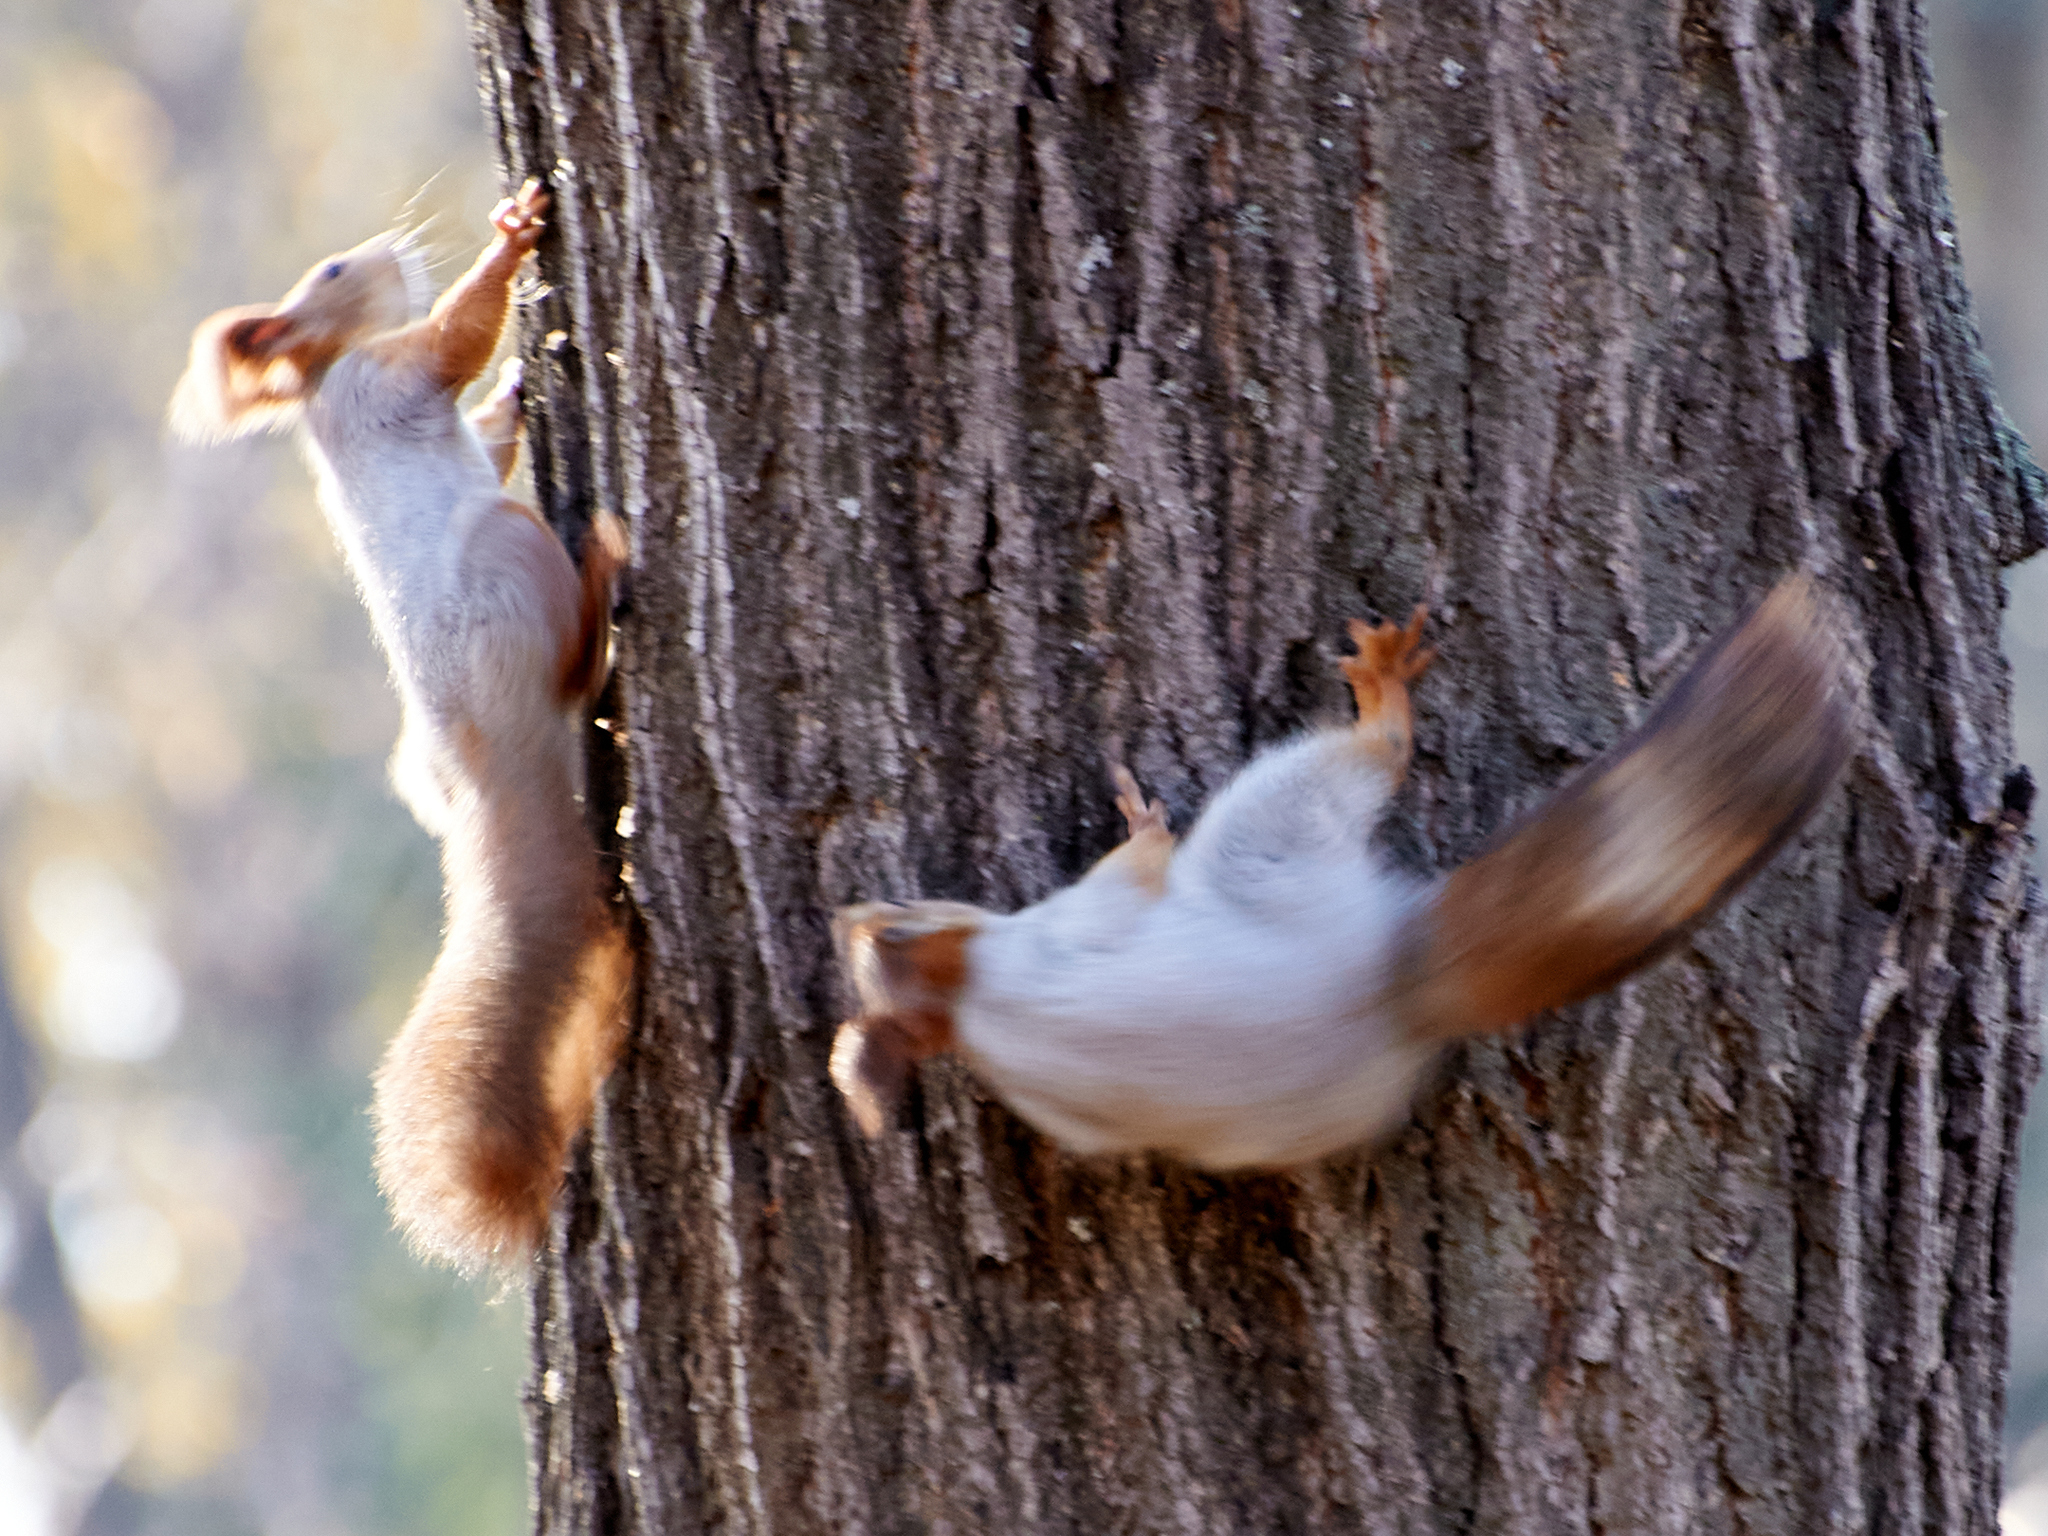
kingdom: Animalia
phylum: Chordata
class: Mammalia
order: Rodentia
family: Sciuridae
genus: Sciurus
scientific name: Sciurus vulgaris
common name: Eurasian red squirrel
